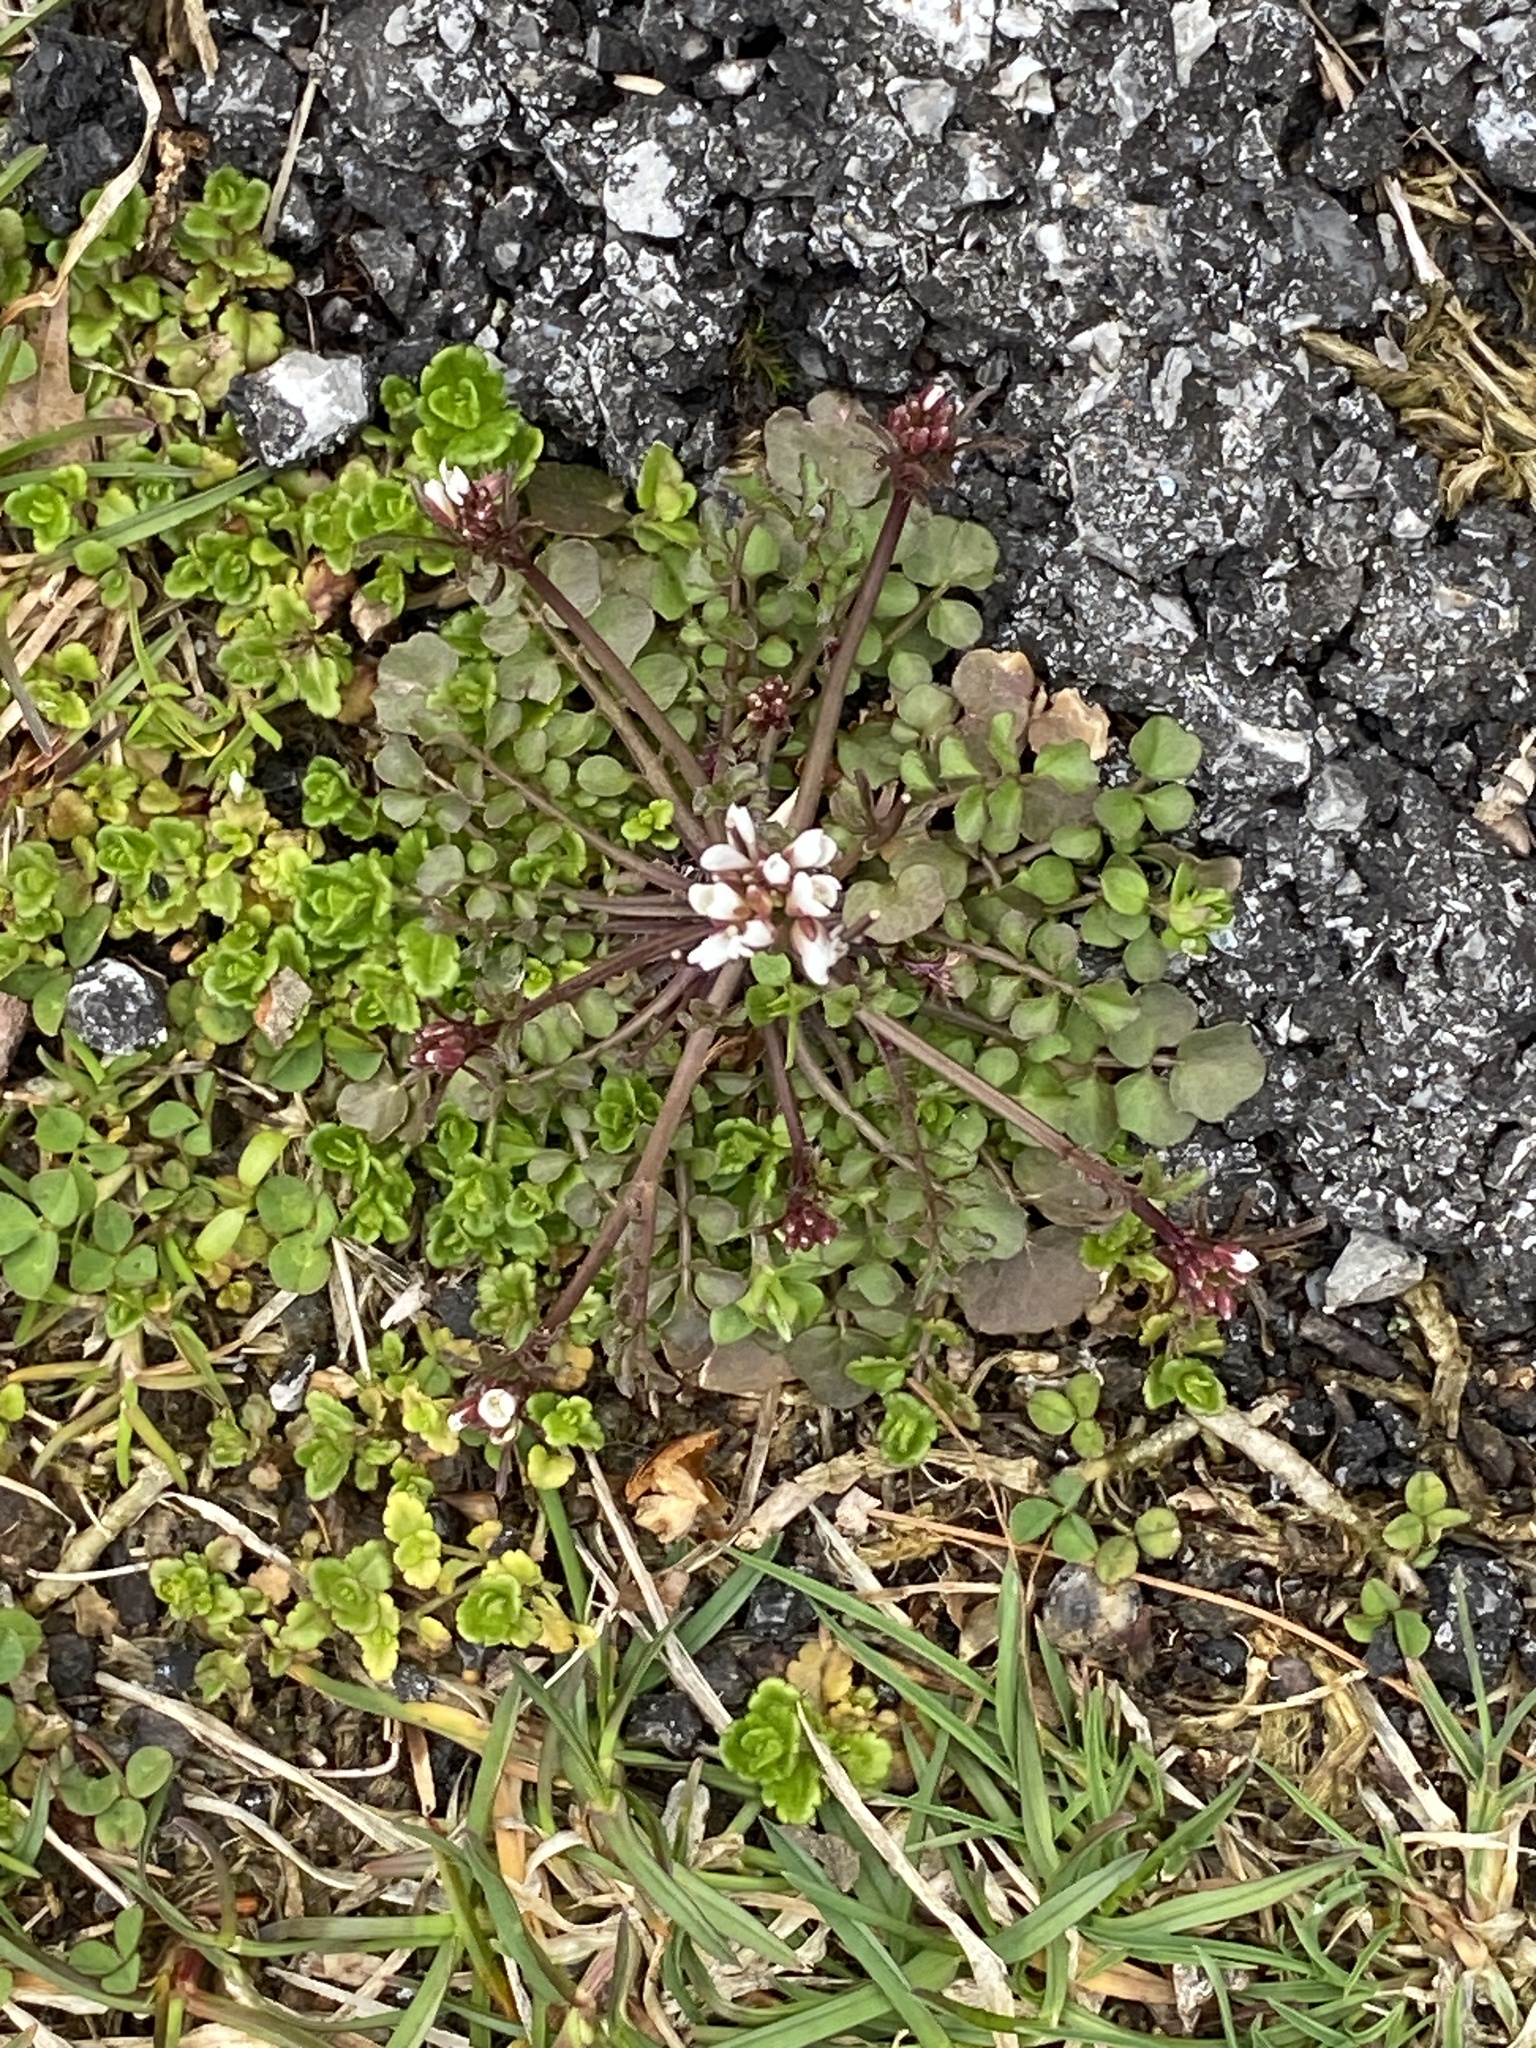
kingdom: Plantae
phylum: Tracheophyta
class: Magnoliopsida
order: Brassicales
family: Brassicaceae
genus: Cardamine
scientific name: Cardamine hirsuta
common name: Hairy bittercress
